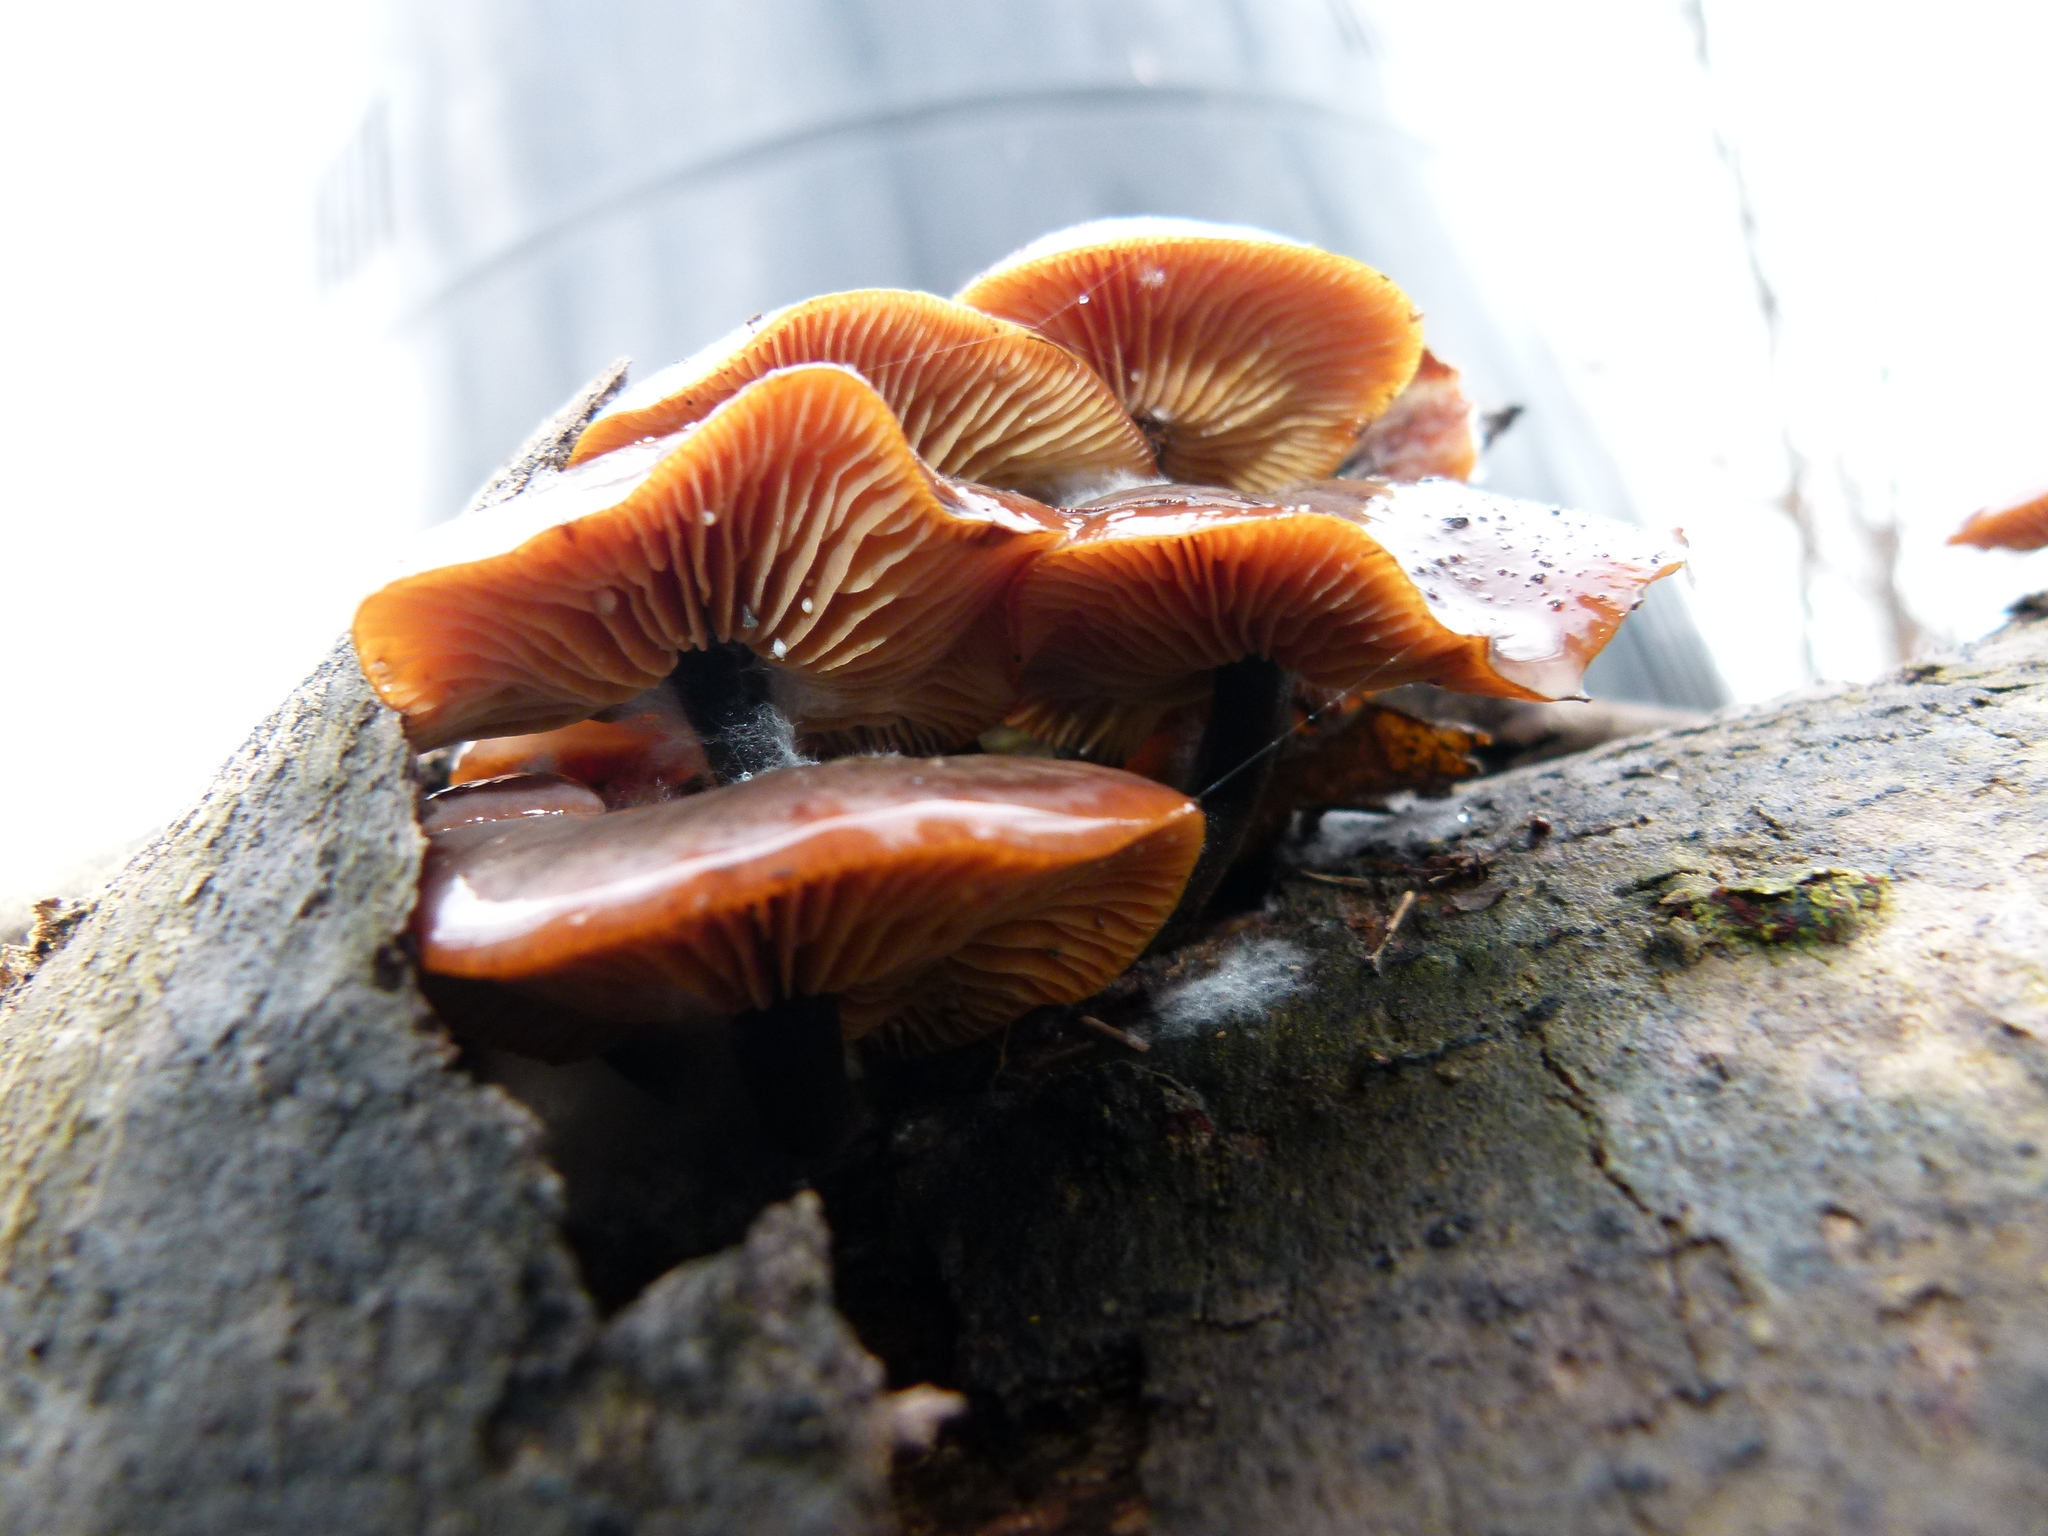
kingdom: Fungi
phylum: Basidiomycota
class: Agaricomycetes
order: Agaricales
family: Physalacriaceae
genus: Flammulina
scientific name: Flammulina velutipes
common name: Velvet shank
